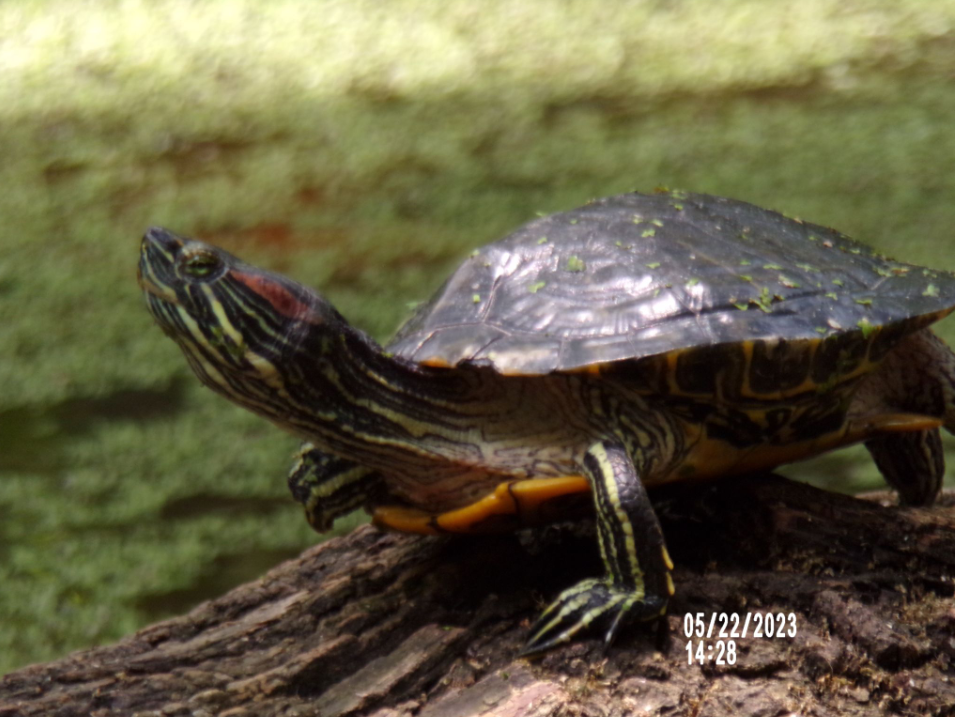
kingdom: Animalia
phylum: Chordata
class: Testudines
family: Emydidae
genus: Trachemys
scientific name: Trachemys scripta
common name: Slider
